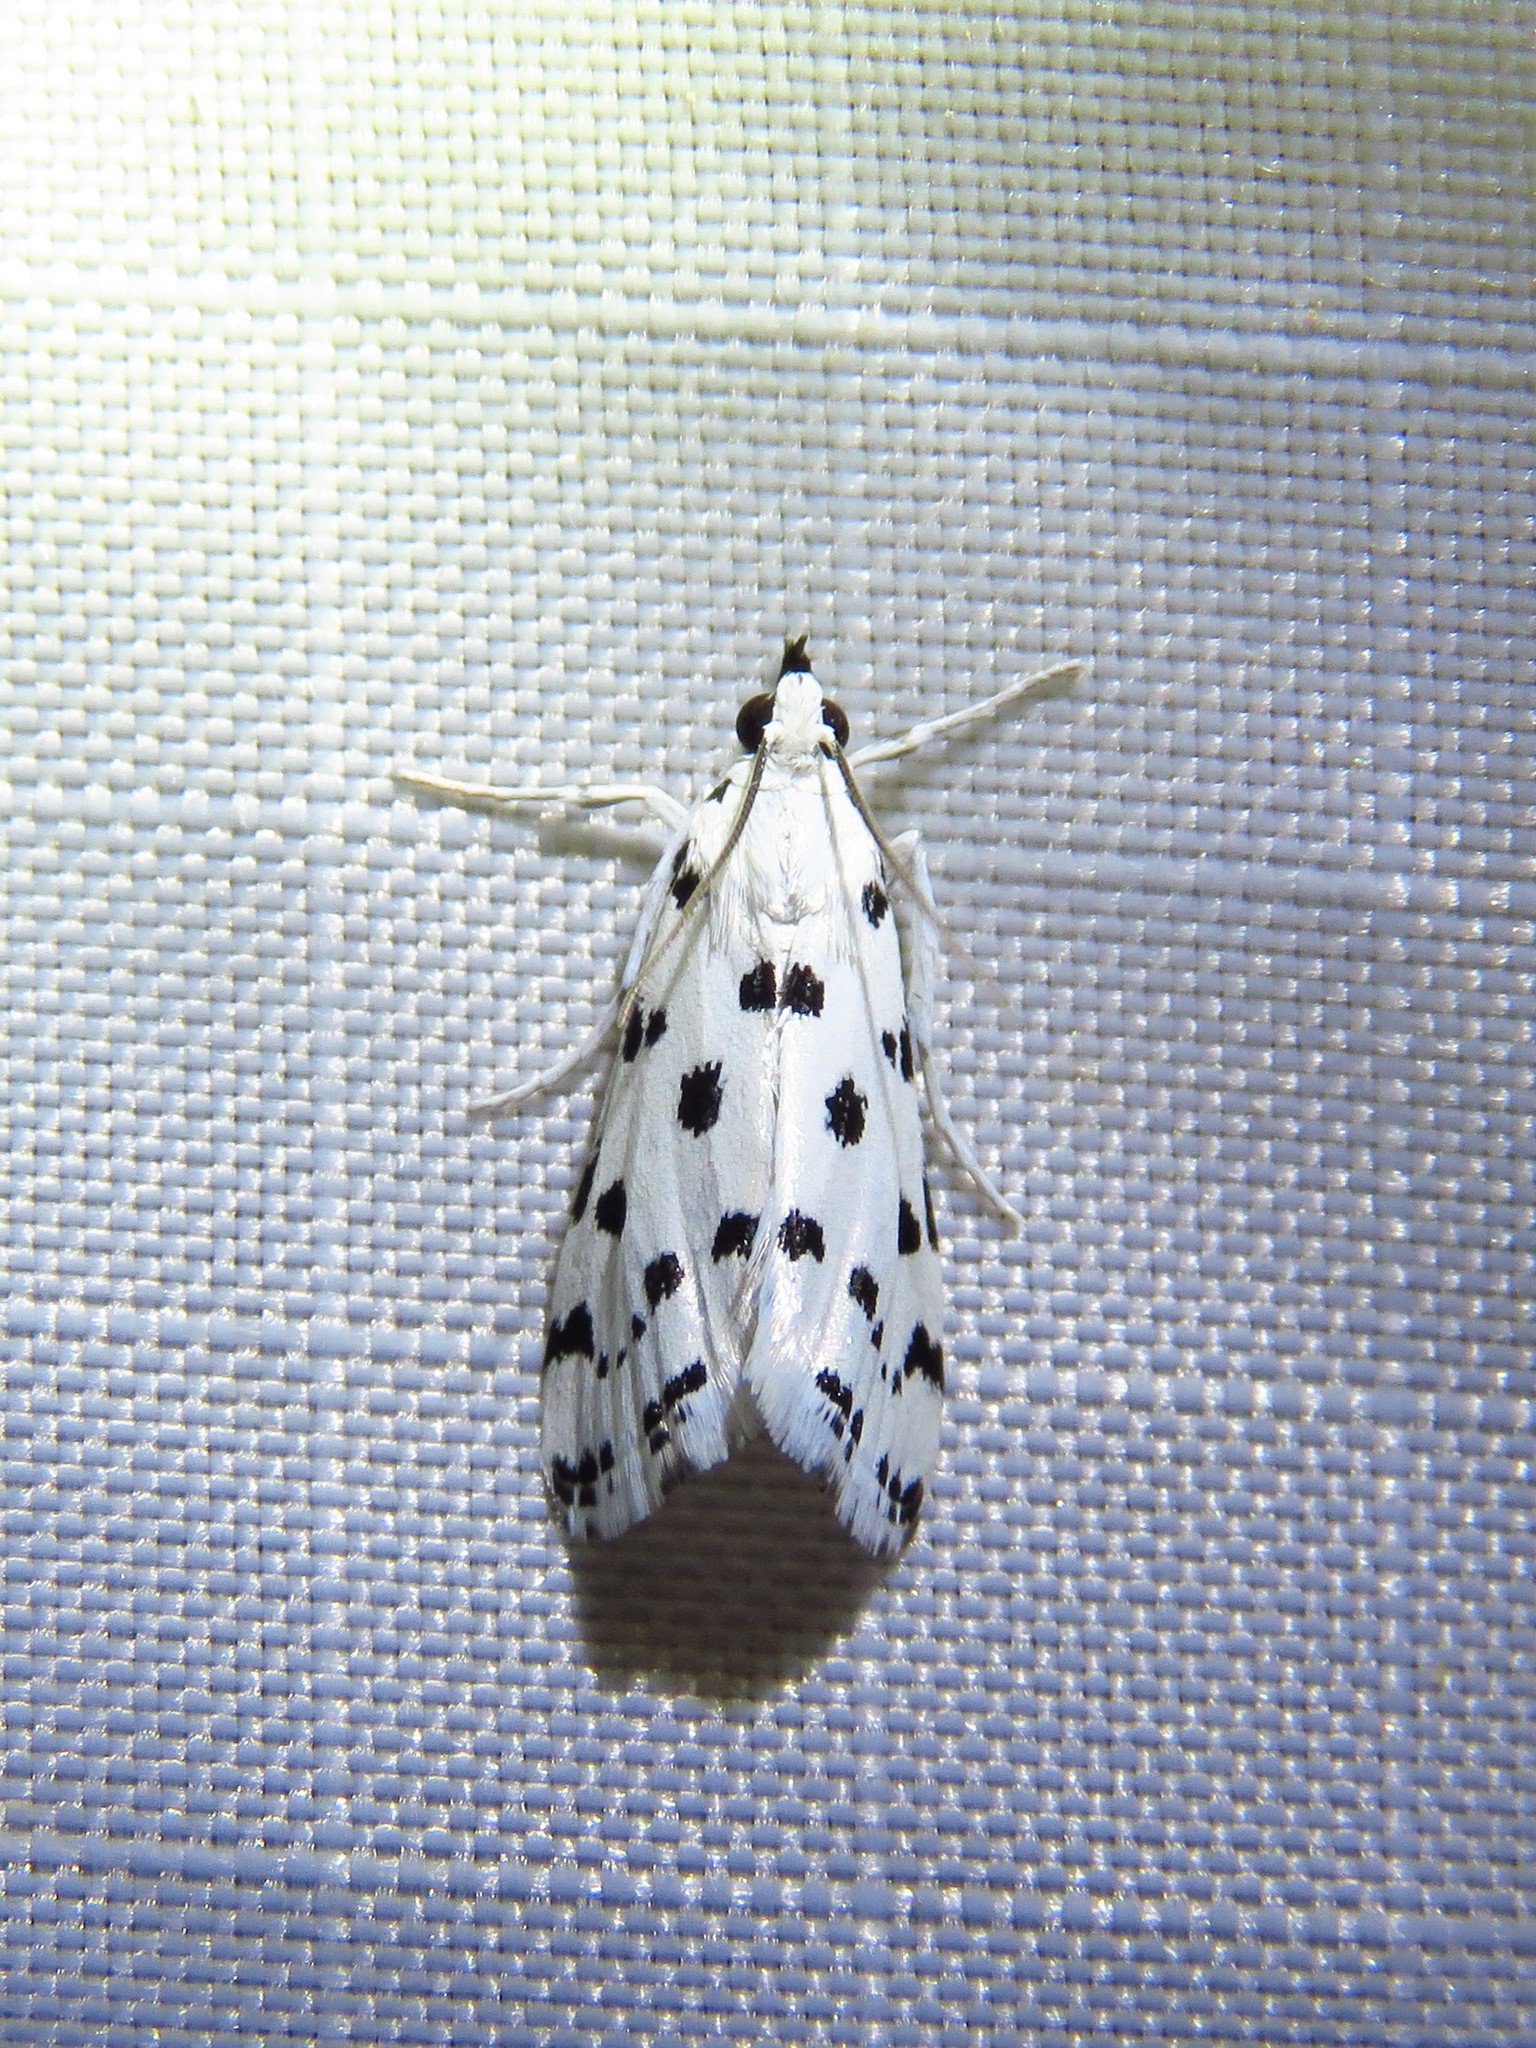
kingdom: Animalia
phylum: Arthropoda
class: Insecta
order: Lepidoptera
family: Crambidae
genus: Eustixia
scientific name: Eustixia pupula
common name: American cabbage pearl
